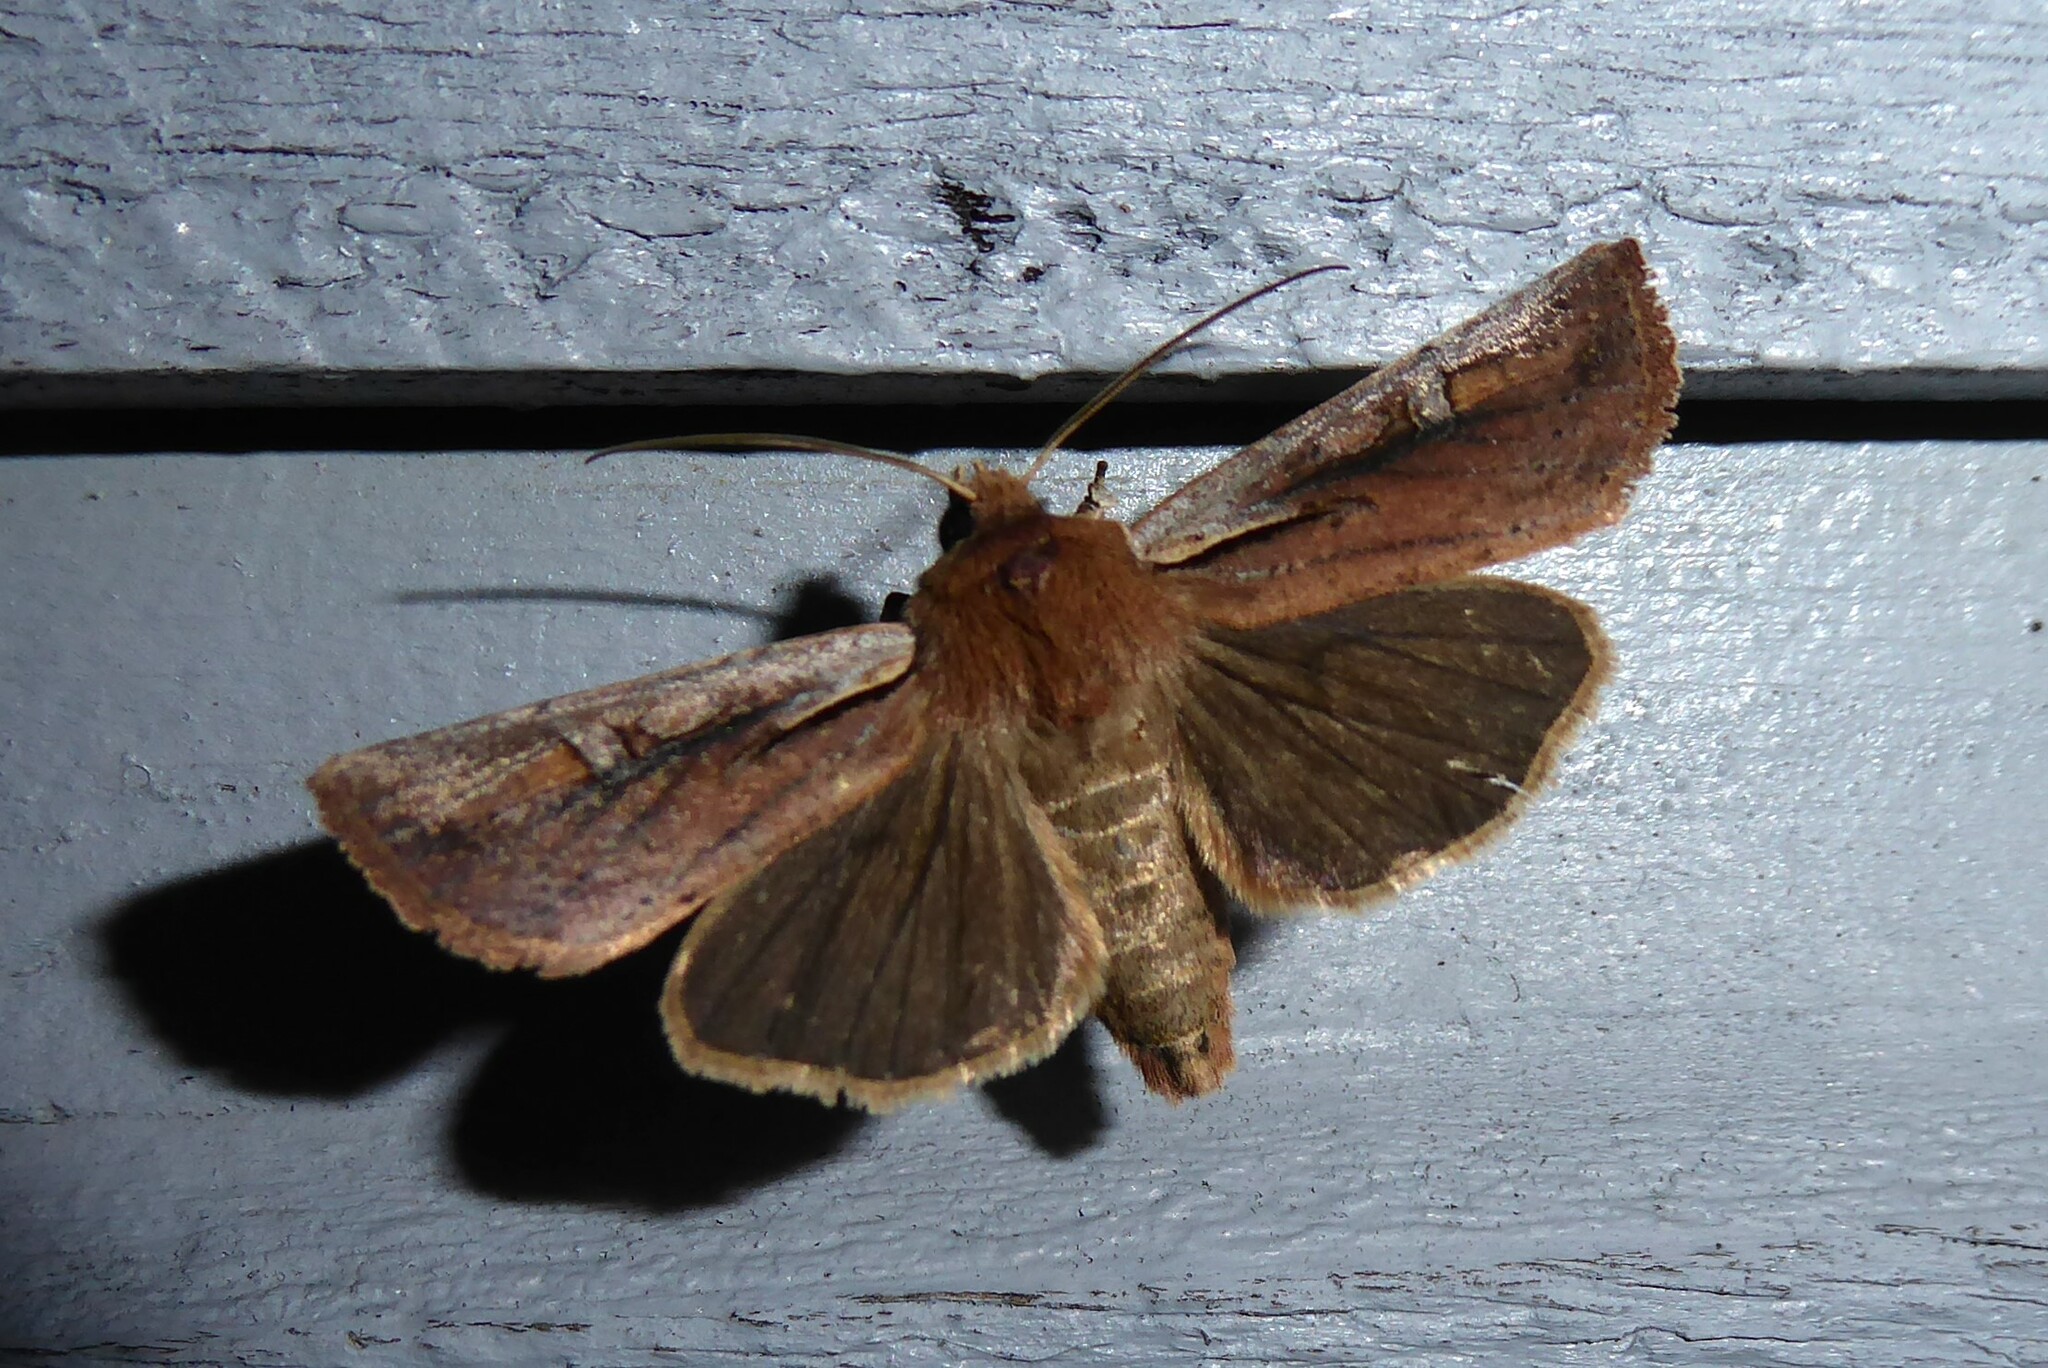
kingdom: Animalia
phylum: Arthropoda
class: Insecta
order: Lepidoptera
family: Noctuidae
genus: Ichneutica
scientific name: Ichneutica atristriga
